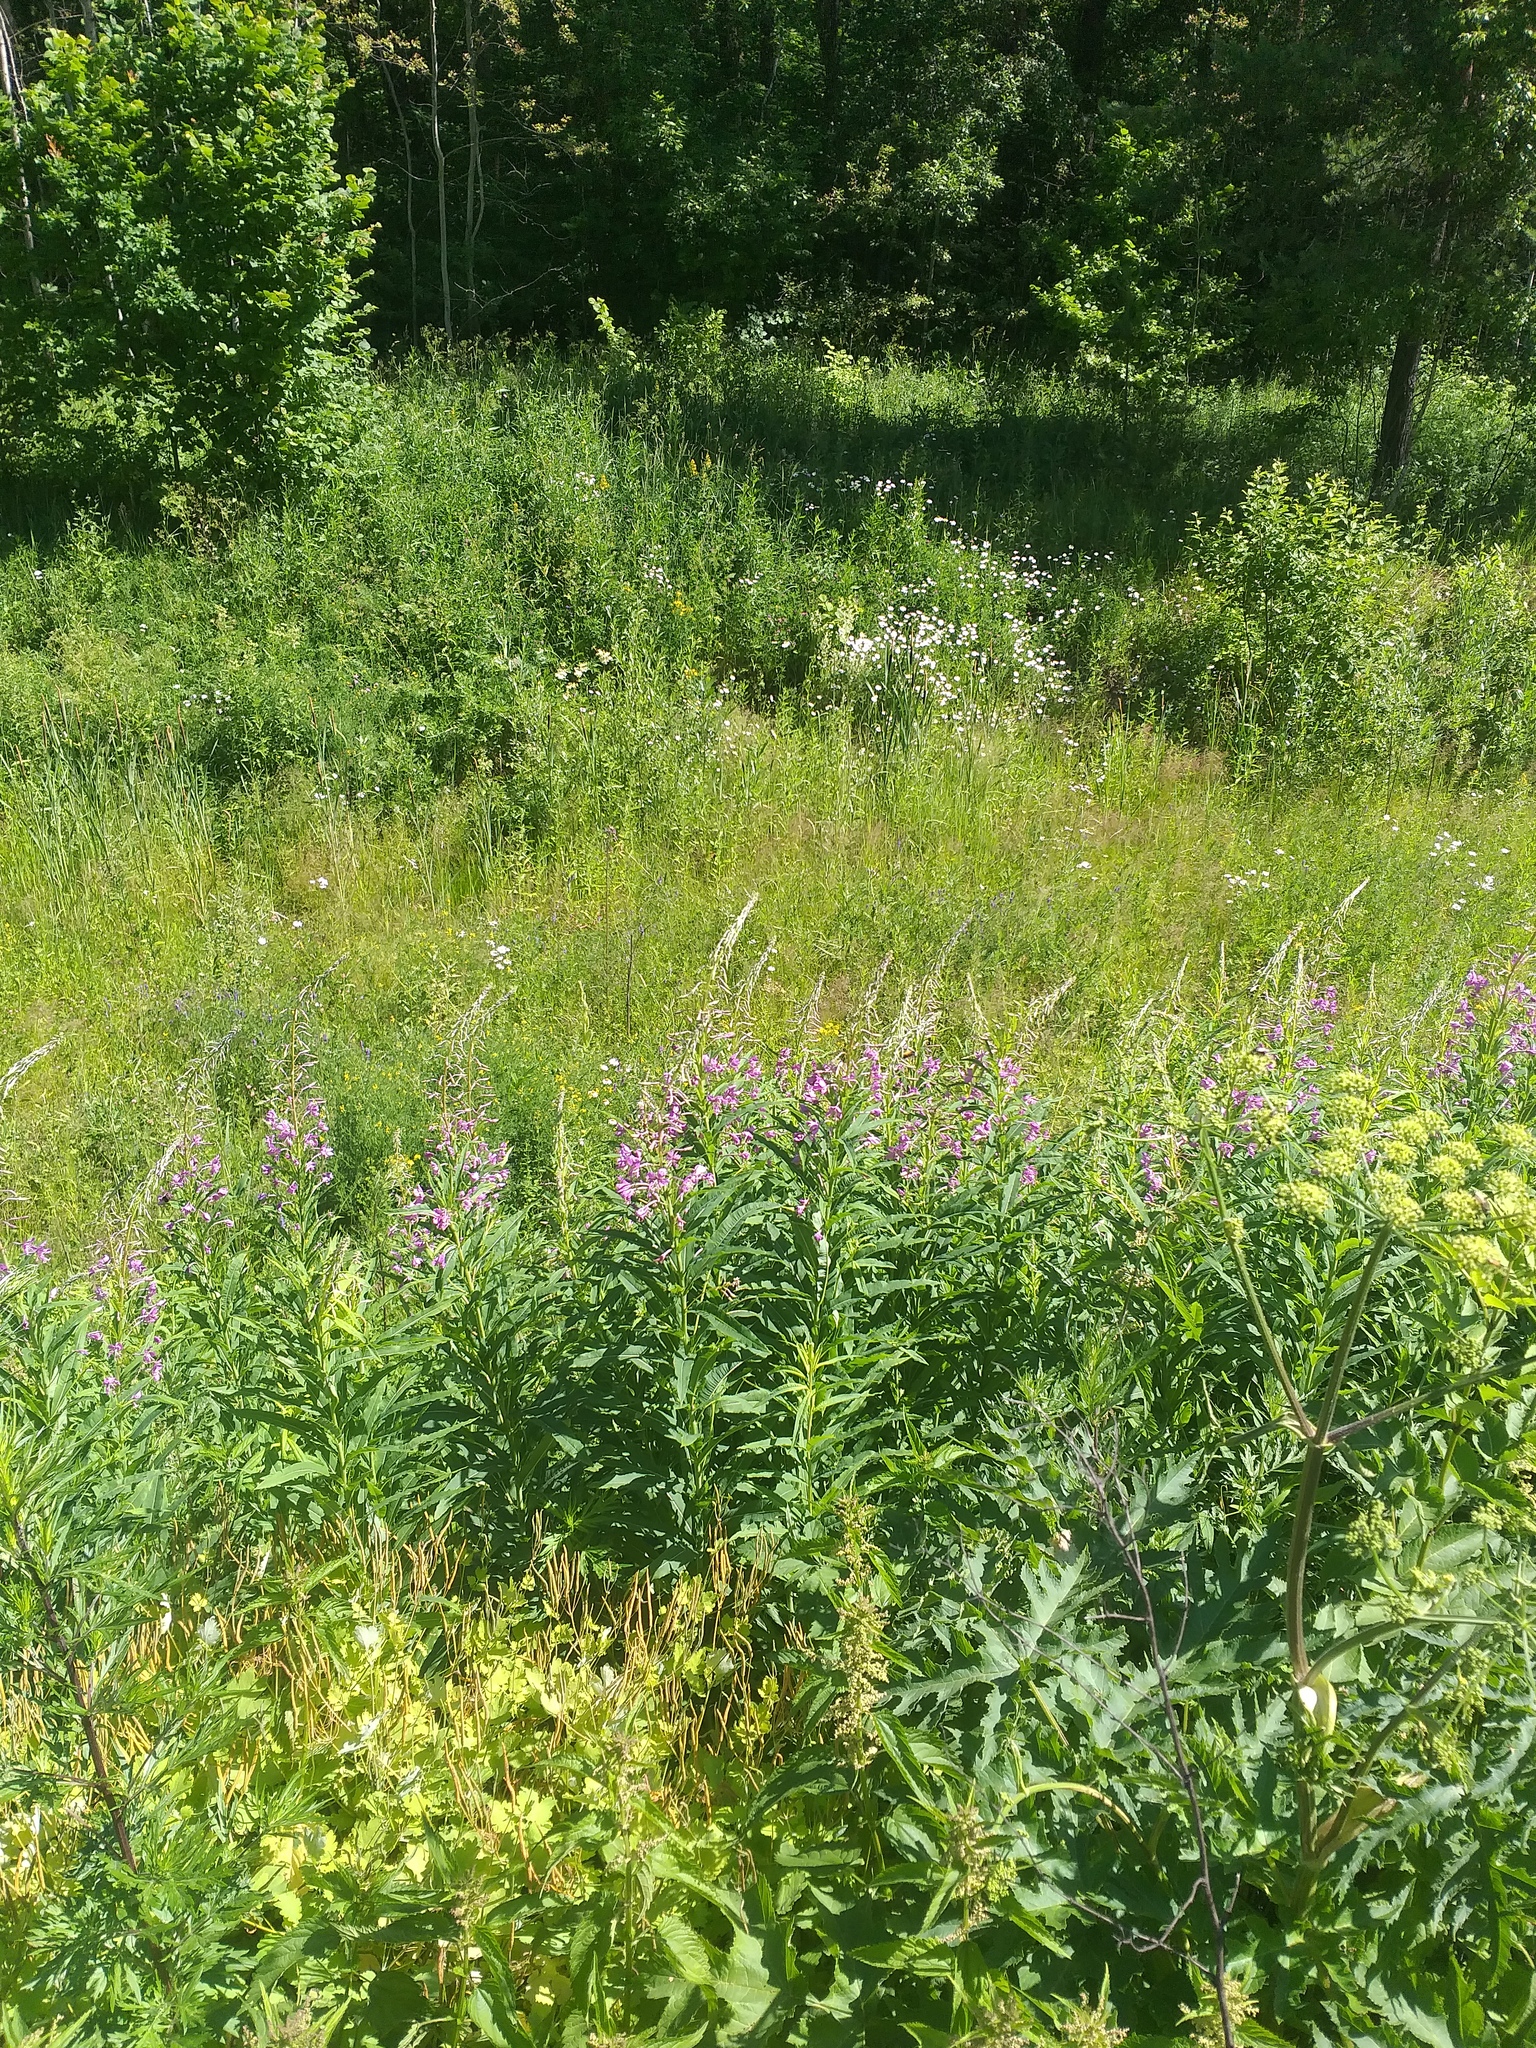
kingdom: Plantae
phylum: Tracheophyta
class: Magnoliopsida
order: Myrtales
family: Onagraceae
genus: Chamaenerion
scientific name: Chamaenerion angustifolium
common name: Fireweed
